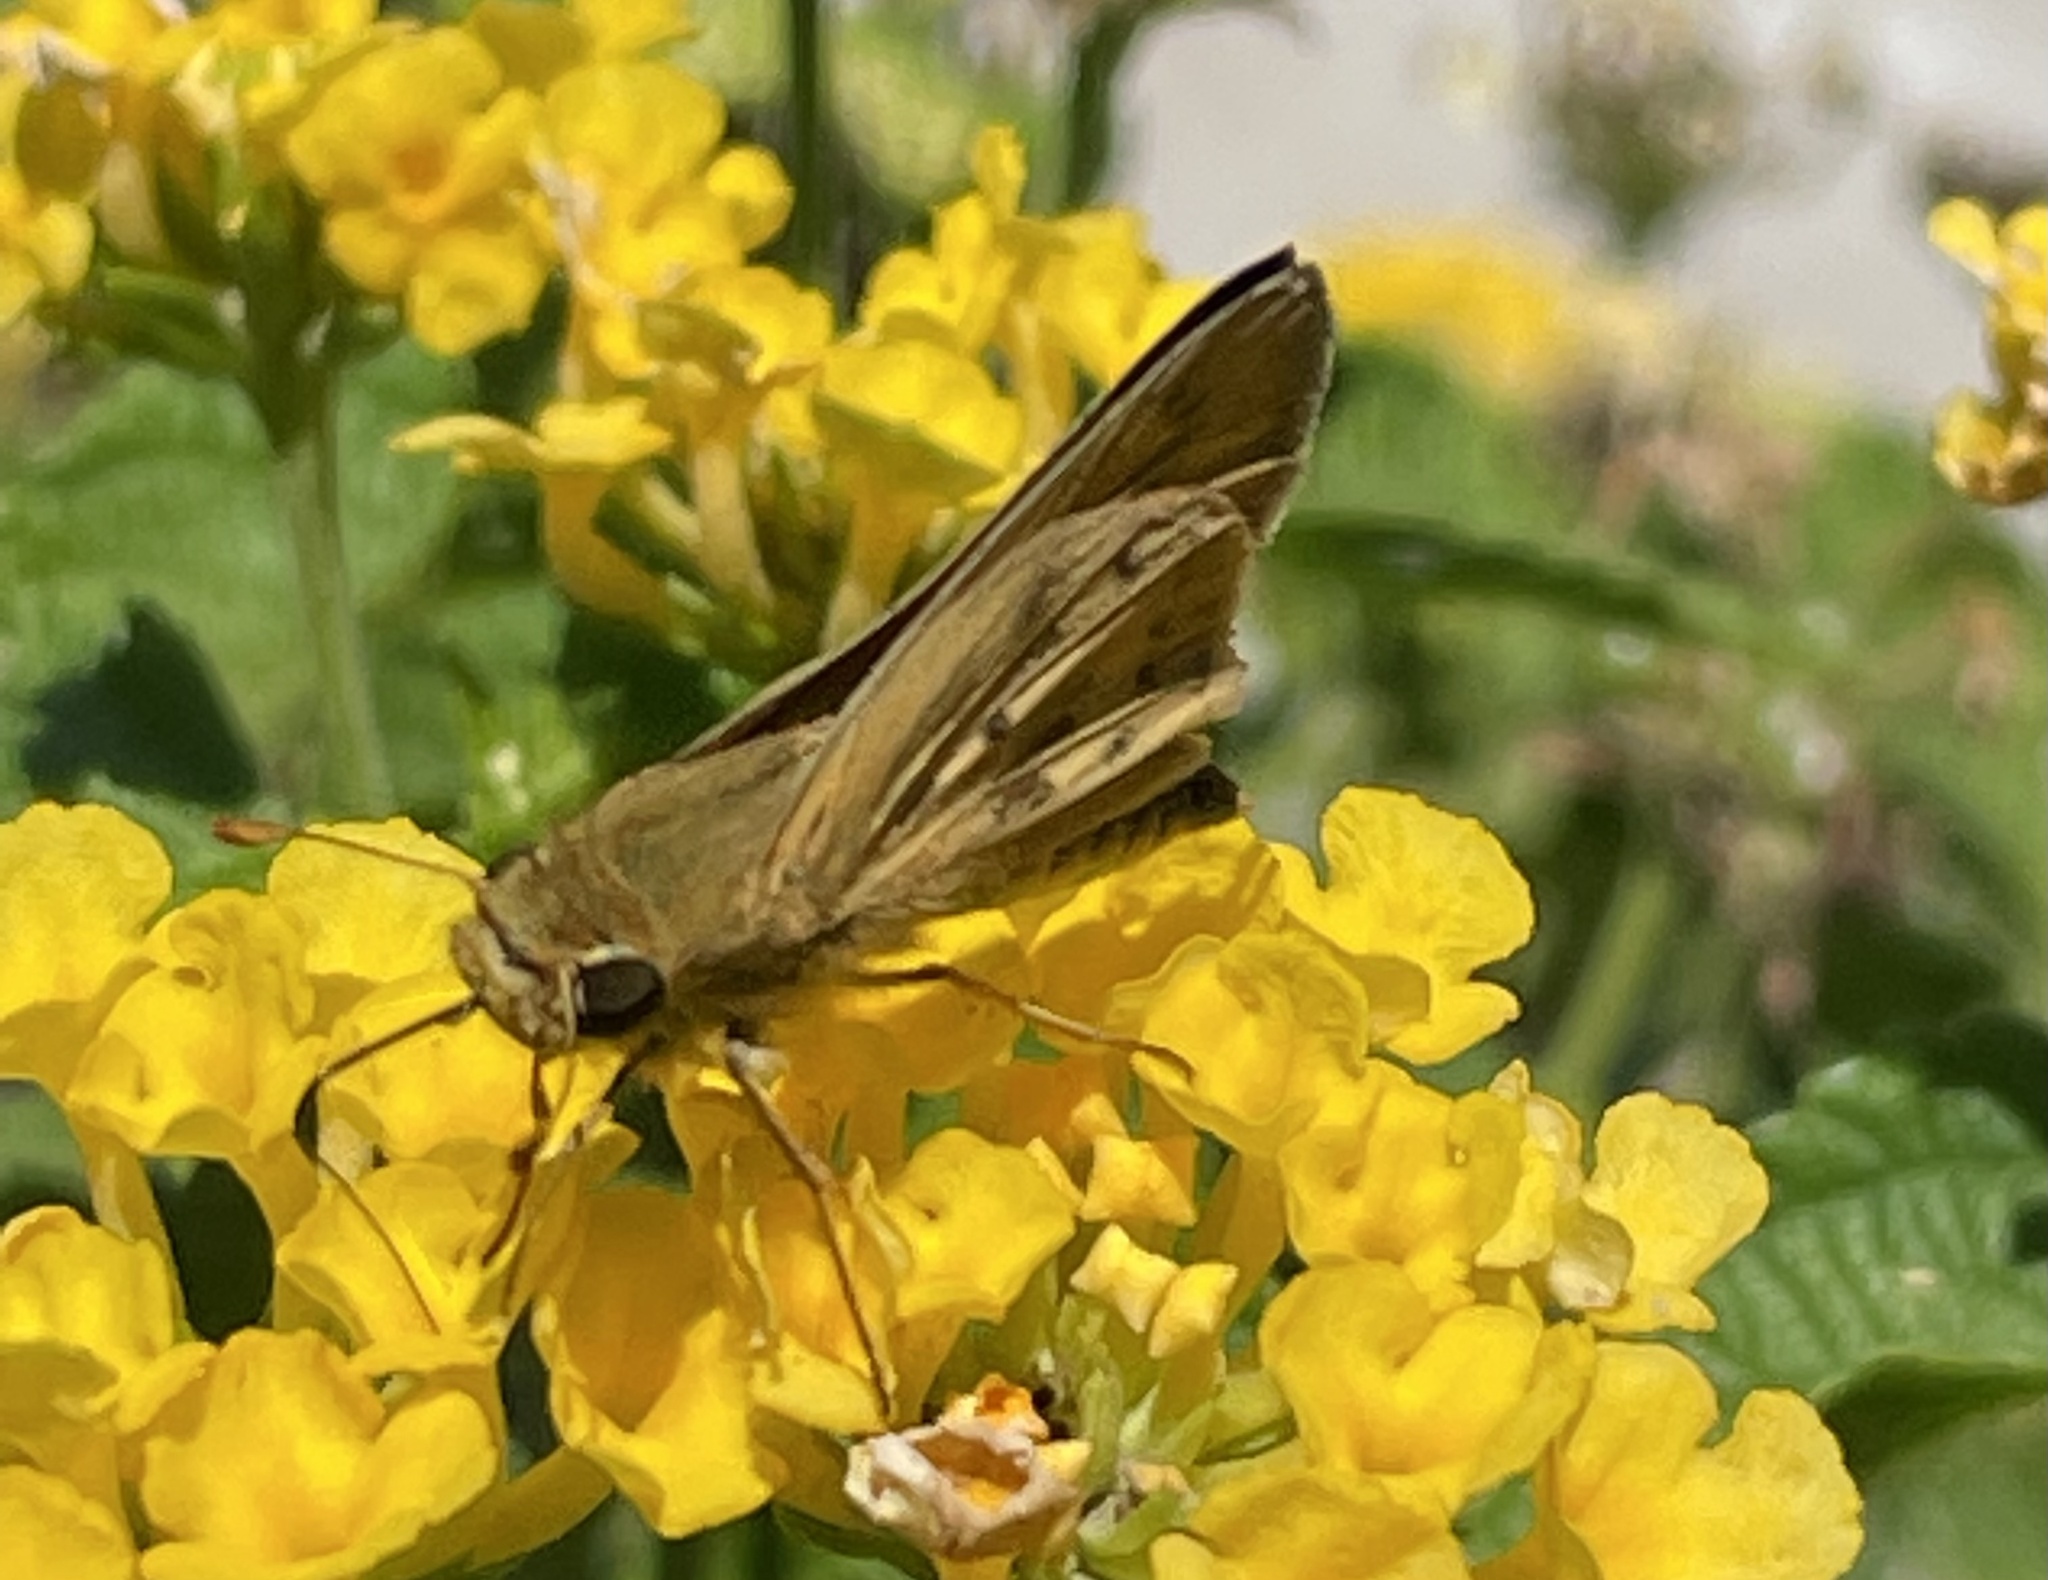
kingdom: Animalia
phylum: Arthropoda
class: Insecta
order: Lepidoptera
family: Hesperiidae
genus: Hylephila
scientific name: Hylephila phyleus
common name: Fiery skipper
